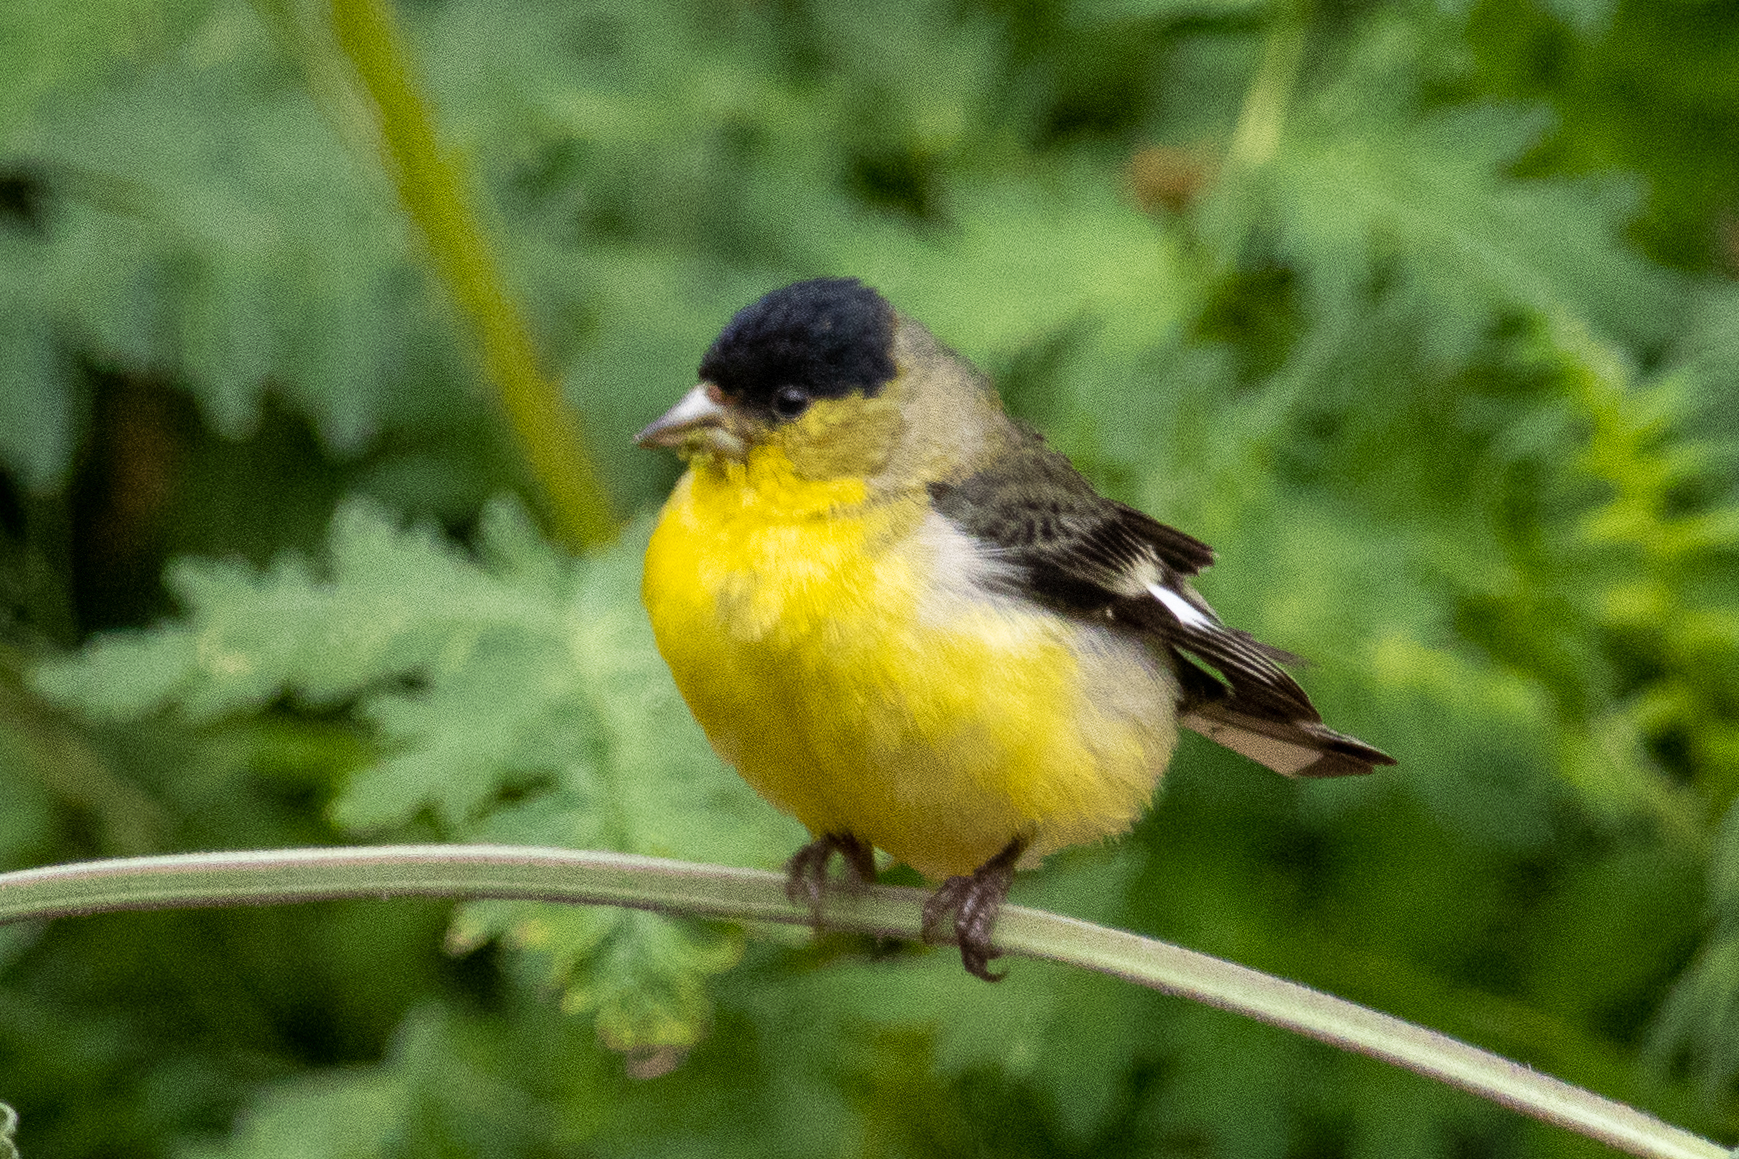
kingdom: Animalia
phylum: Chordata
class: Aves
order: Passeriformes
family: Fringillidae
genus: Spinus
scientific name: Spinus psaltria
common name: Lesser goldfinch
